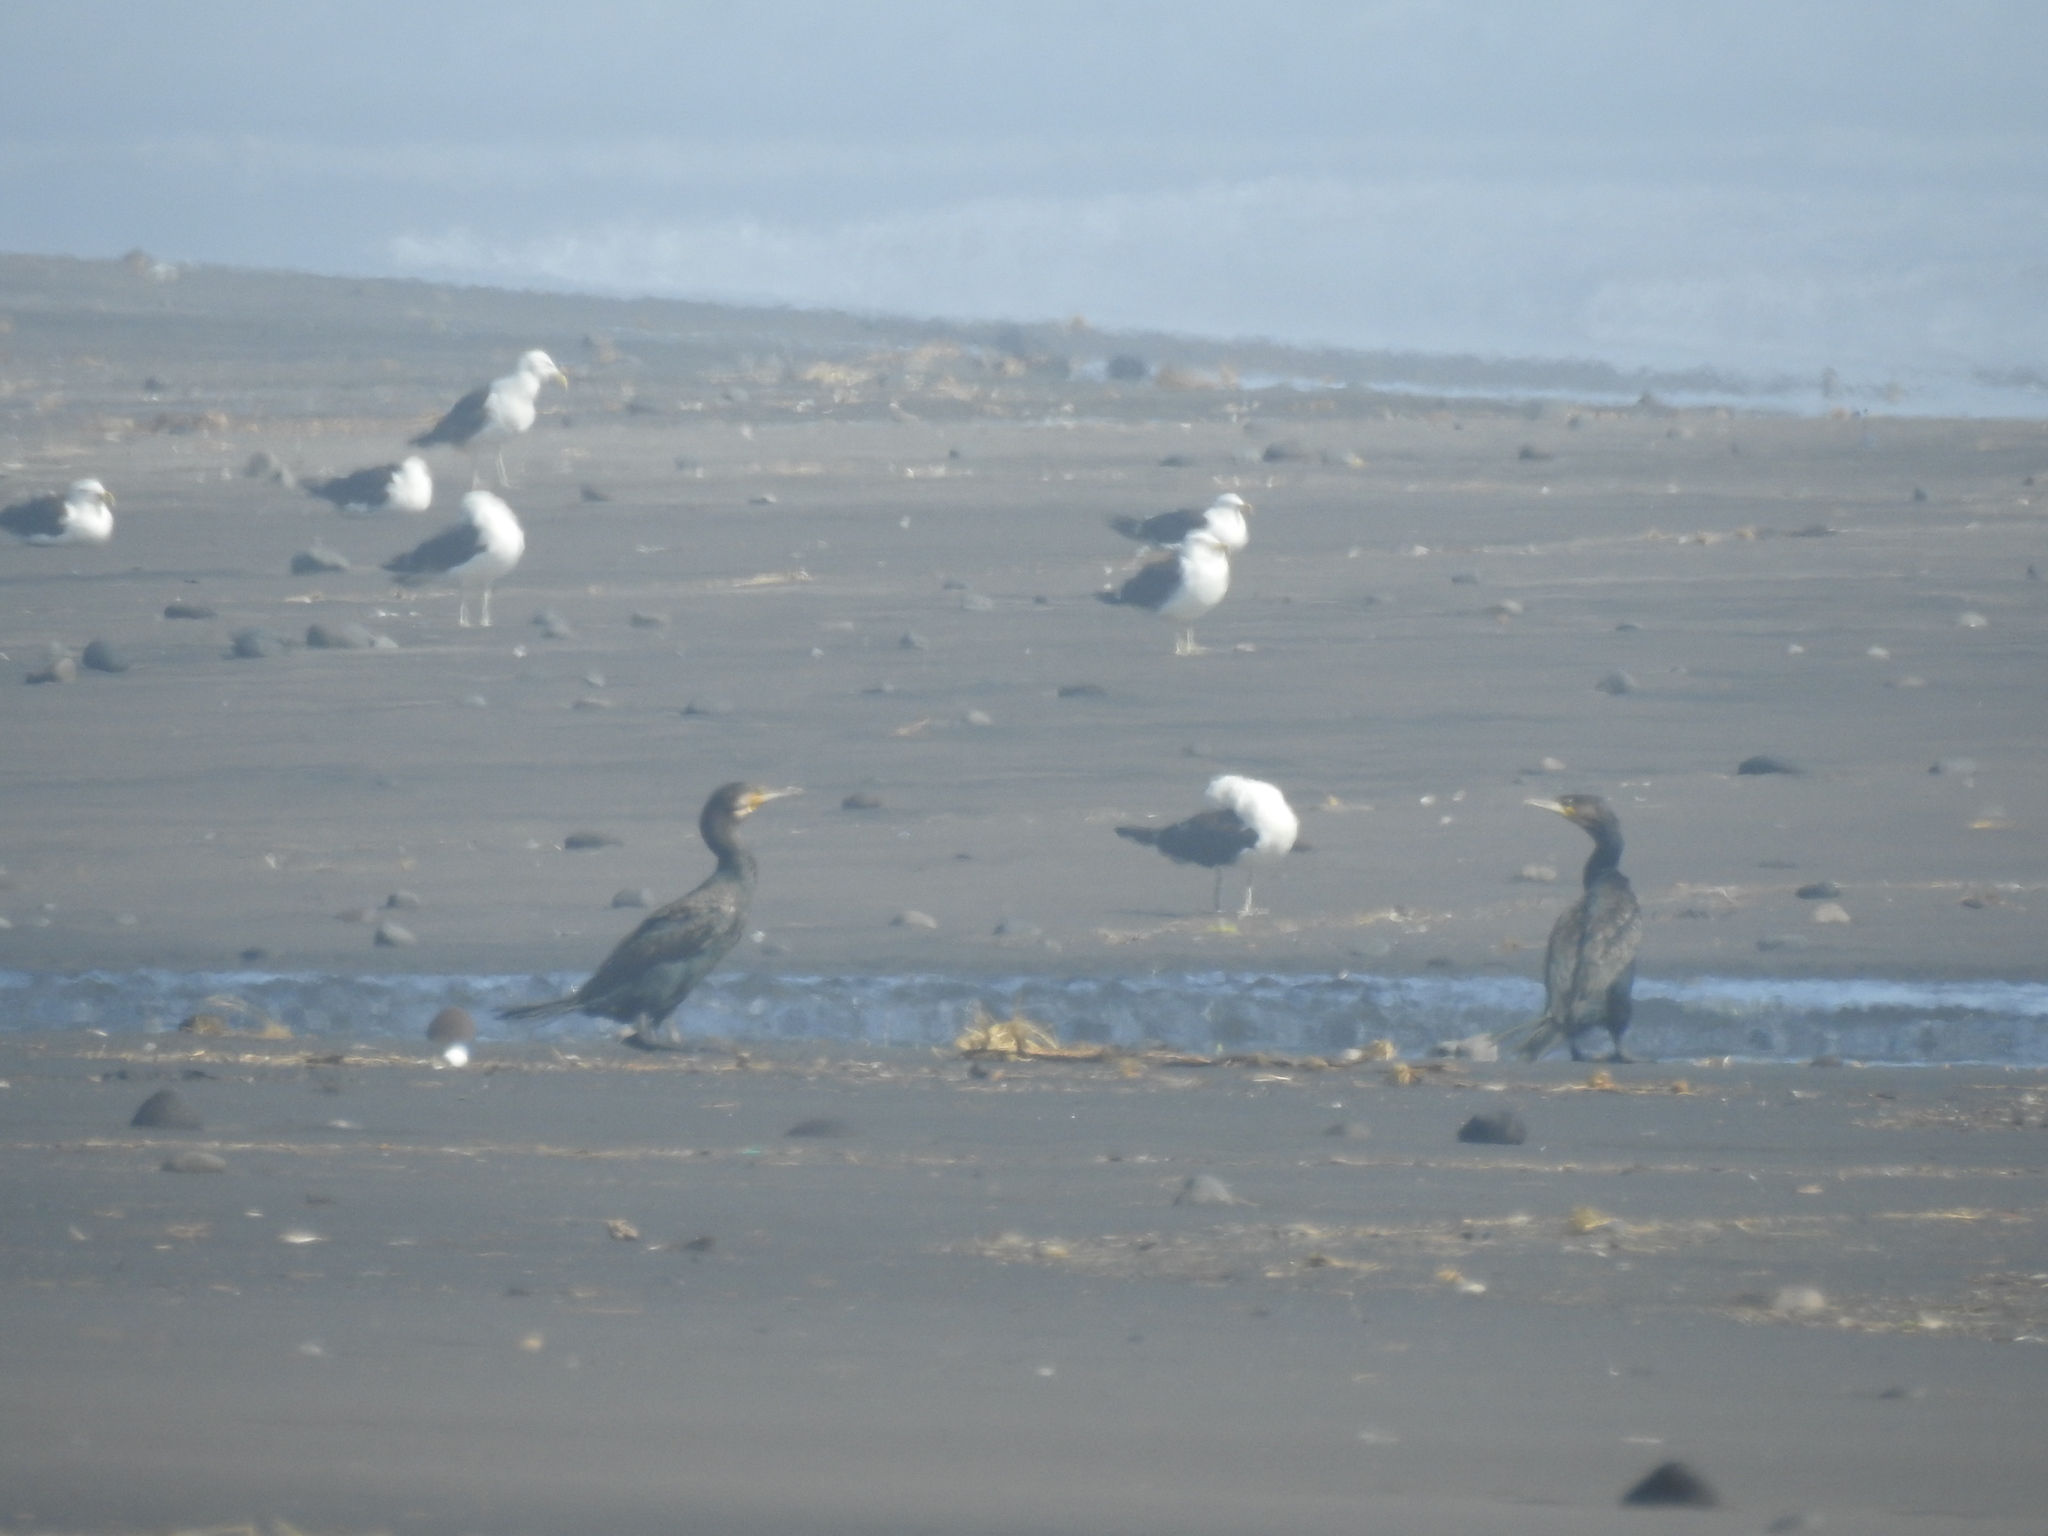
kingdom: Animalia
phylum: Chordata
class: Aves
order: Suliformes
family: Phalacrocoracidae
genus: Phalacrocorax
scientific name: Phalacrocorax carbo
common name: Great cormorant
